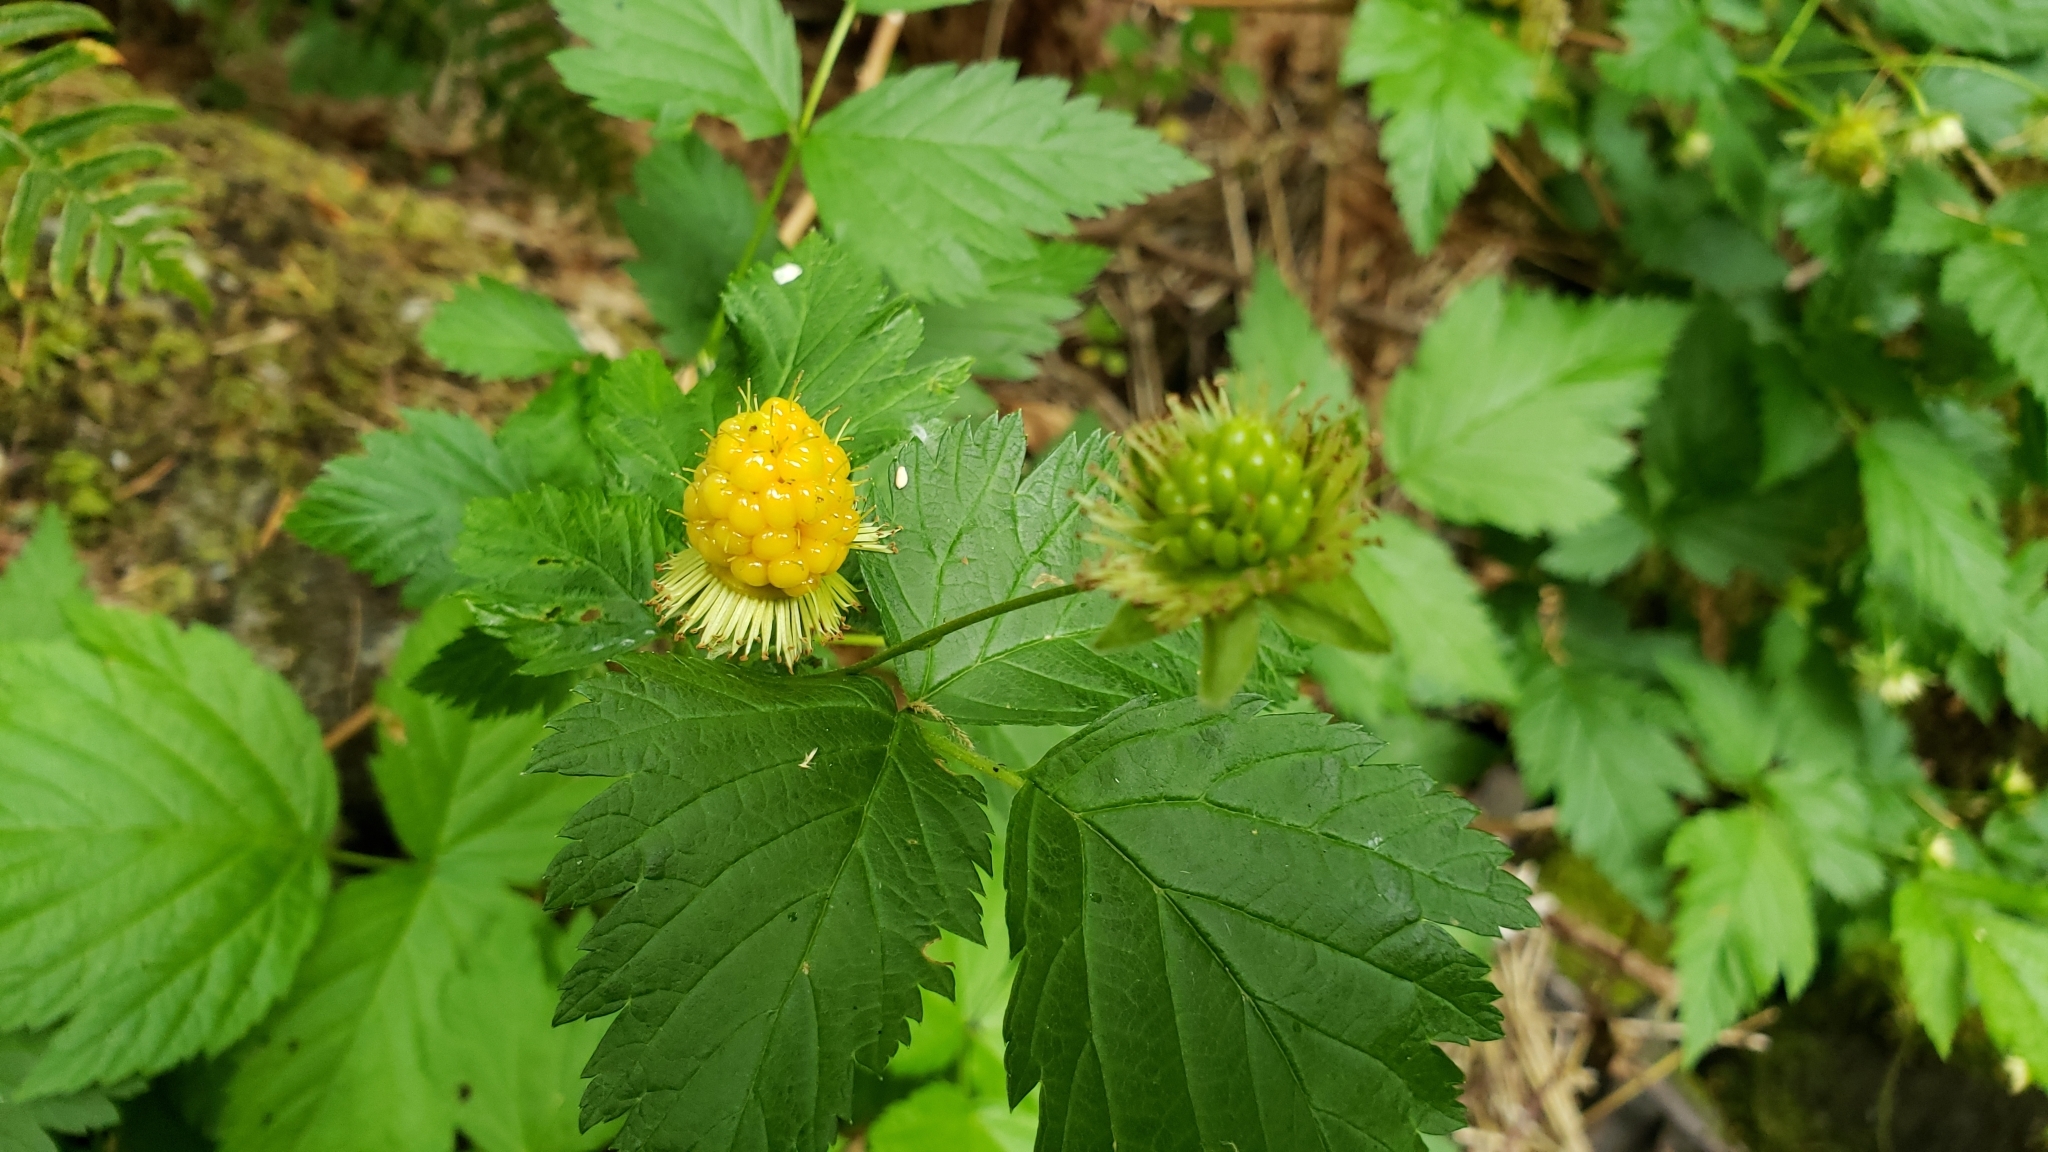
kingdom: Plantae
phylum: Tracheophyta
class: Magnoliopsida
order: Rosales
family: Rosaceae
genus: Rubus
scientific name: Rubus spectabilis
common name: Salmonberry
